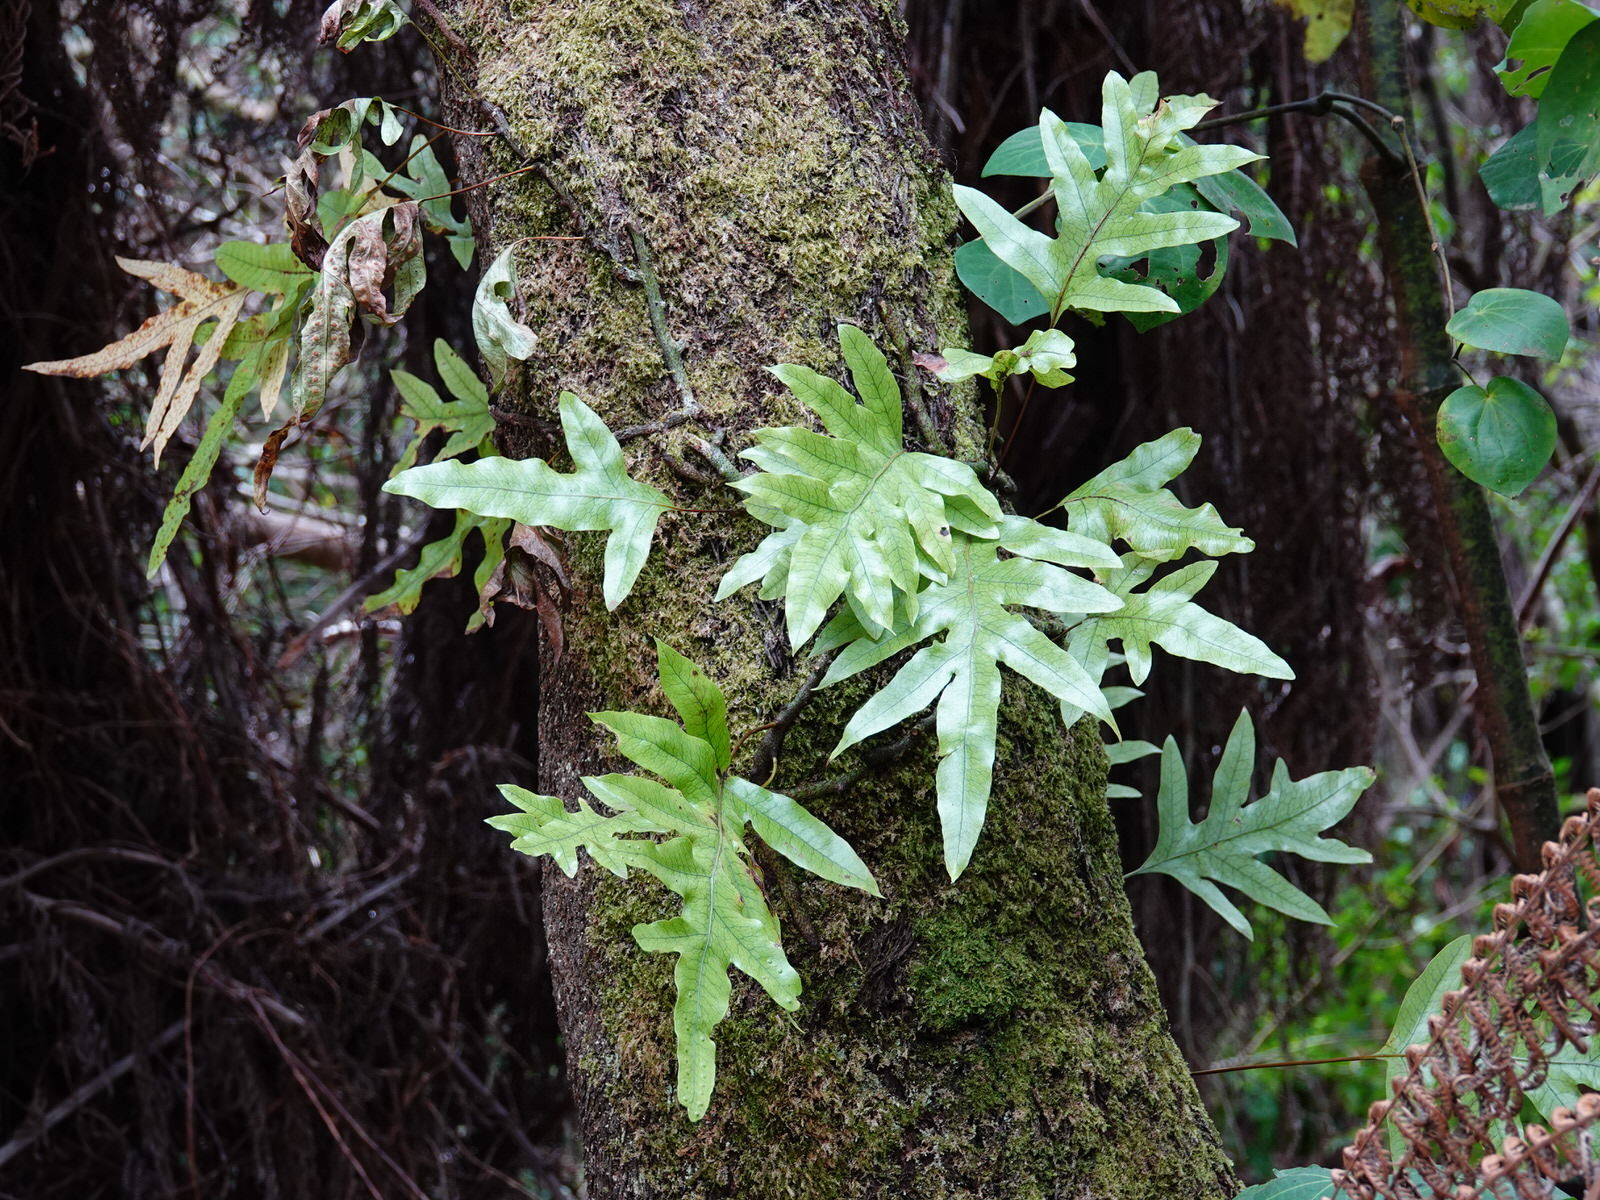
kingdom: Plantae
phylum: Tracheophyta
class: Polypodiopsida
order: Polypodiales
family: Polypodiaceae
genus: Lecanopteris
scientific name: Lecanopteris pustulata
